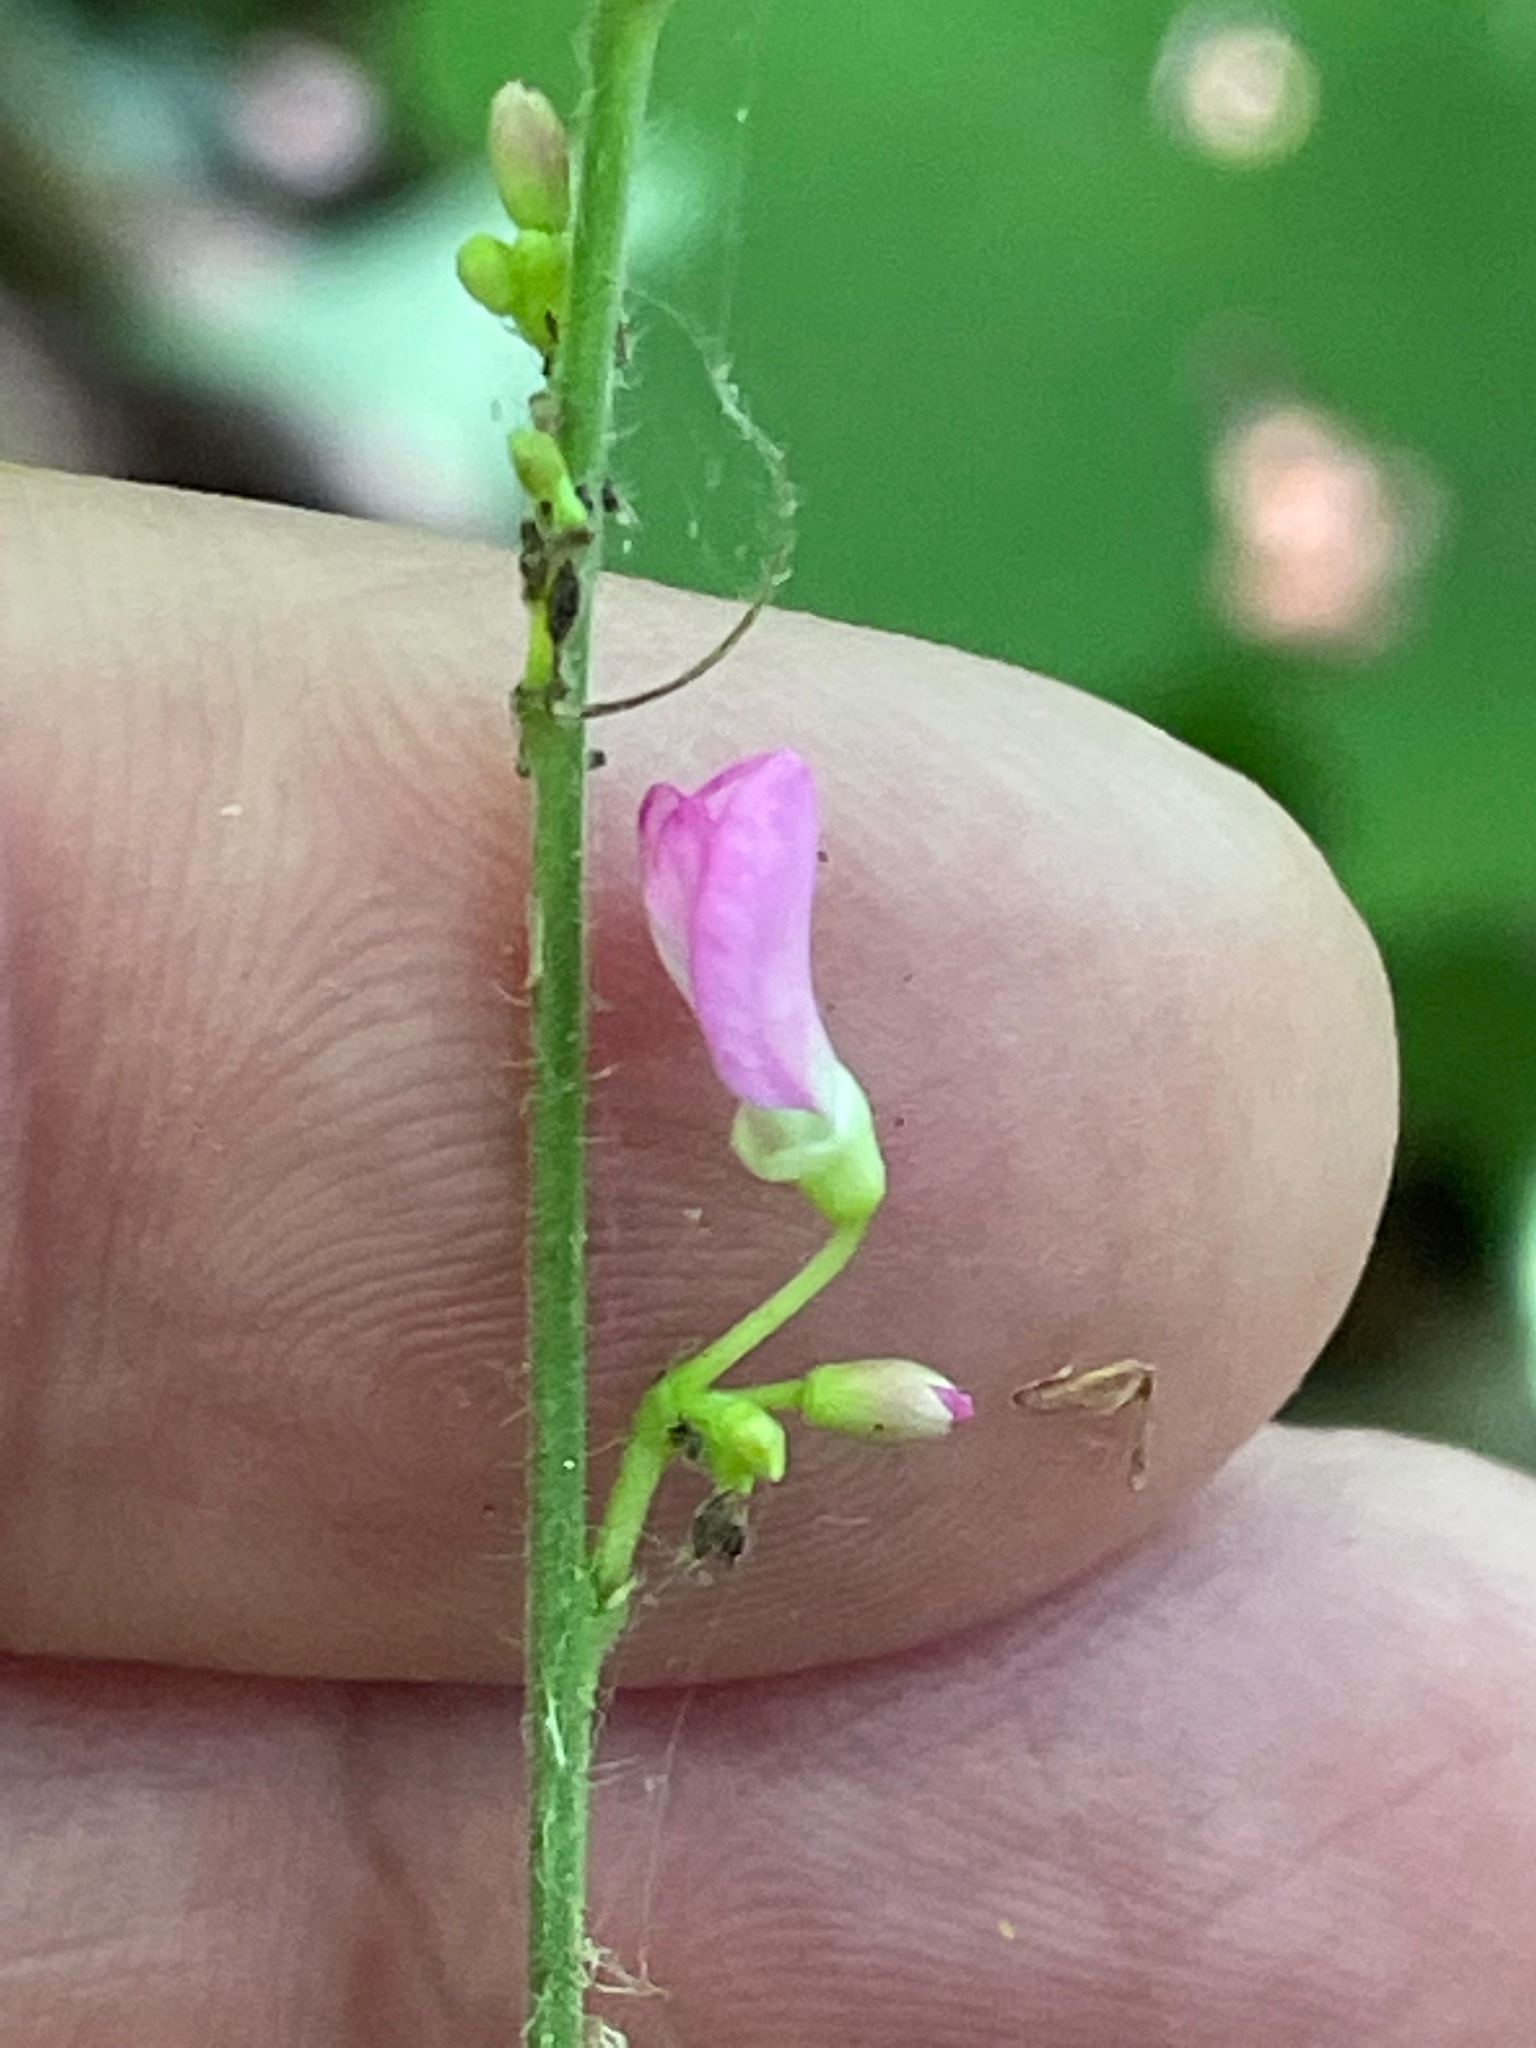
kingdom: Plantae
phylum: Tracheophyta
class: Magnoliopsida
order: Fabales
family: Fabaceae
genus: Hylodesmum
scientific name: Hylodesmum glutinosum
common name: Clustered-leaved tick-trefoil
